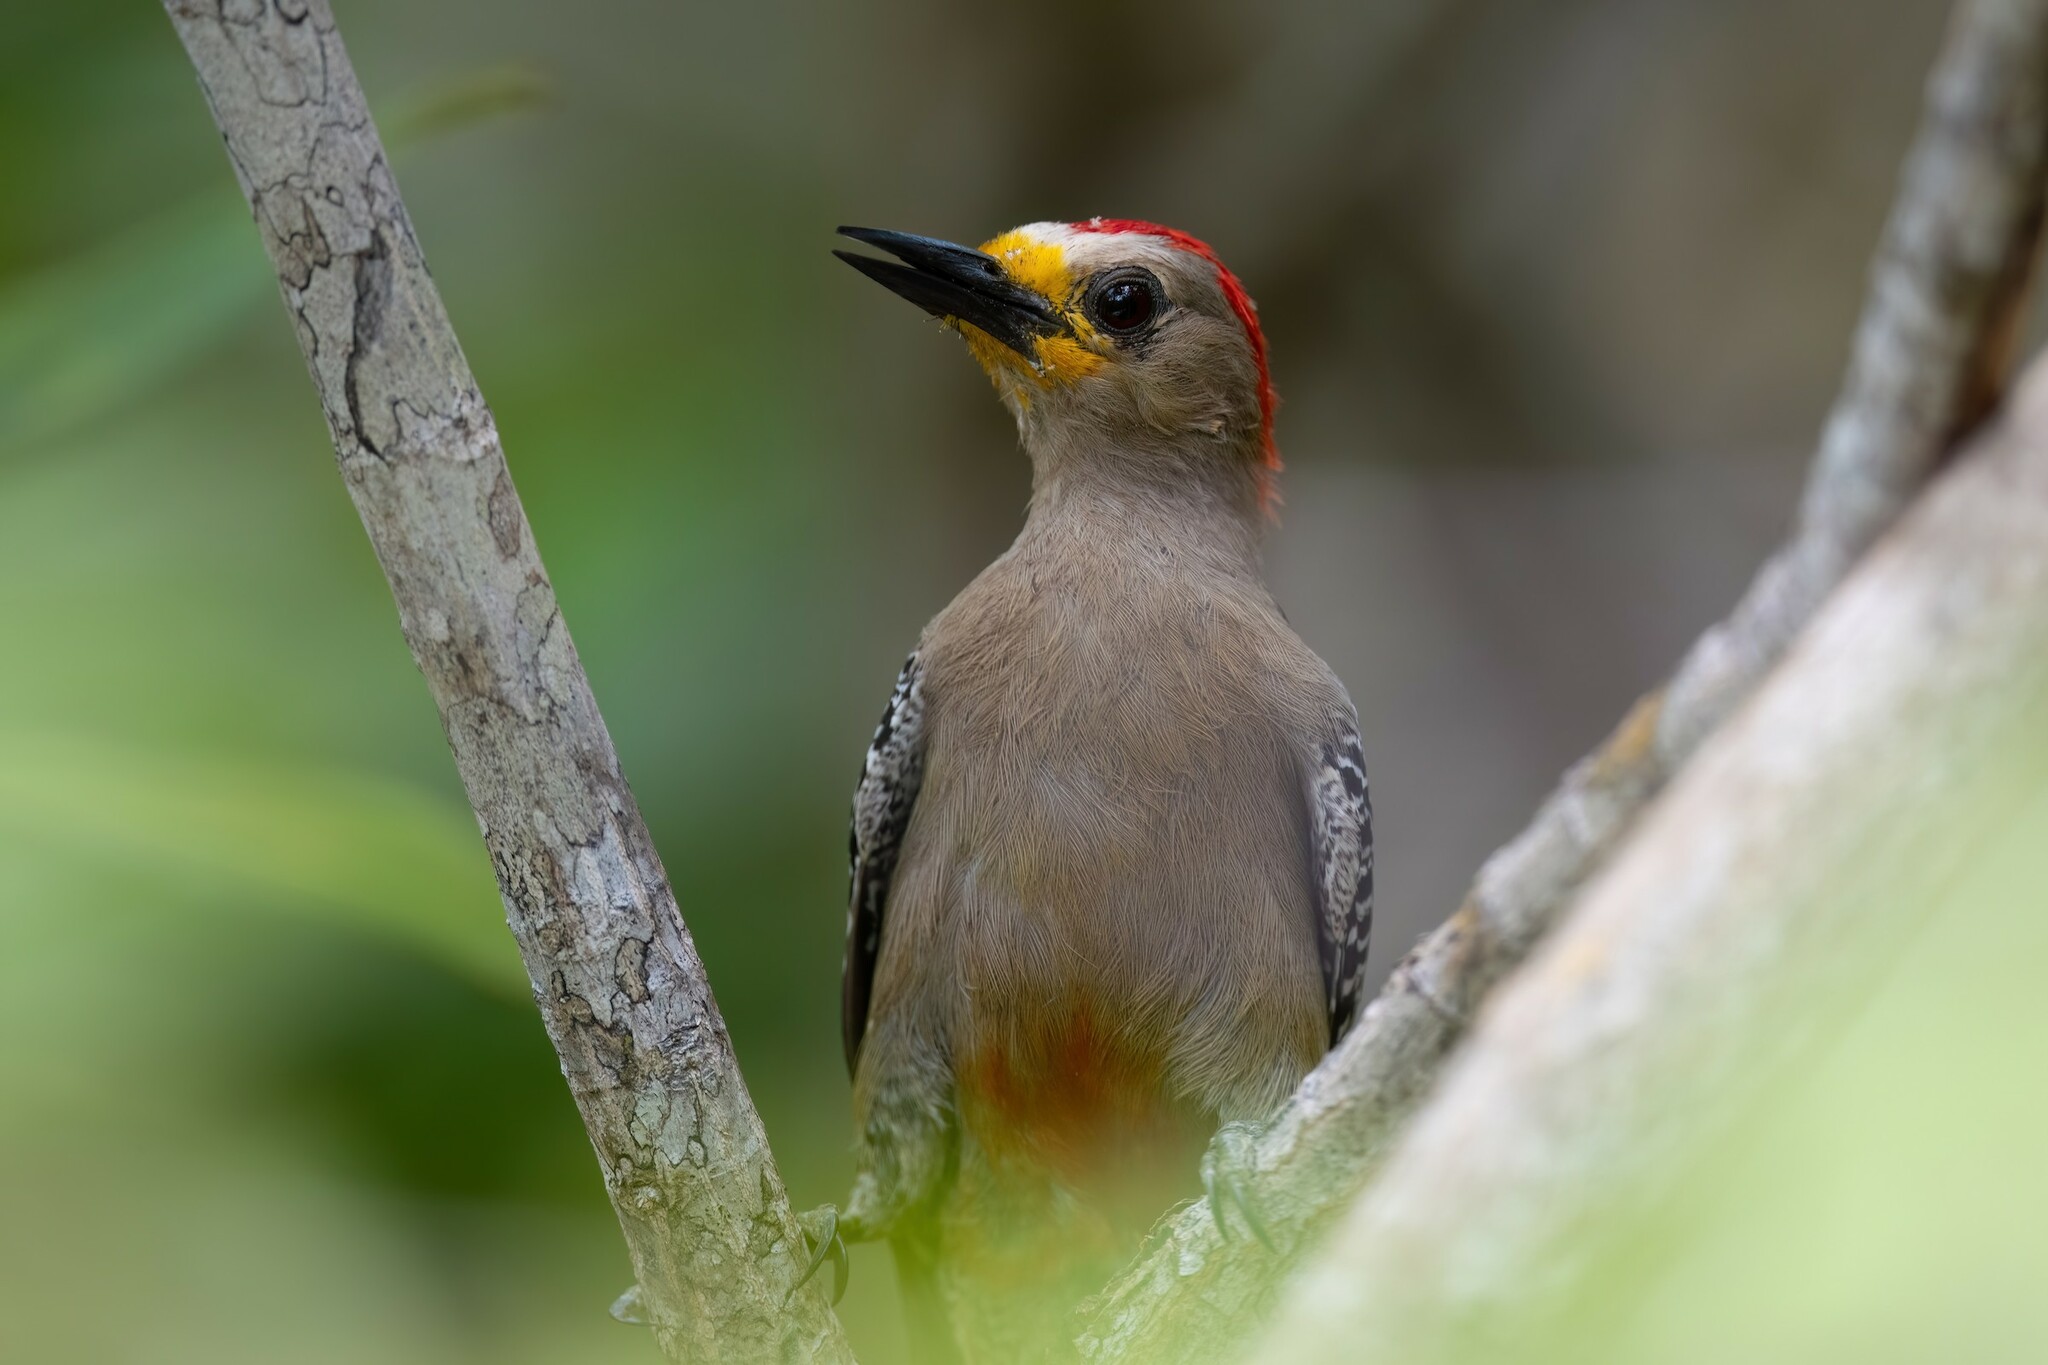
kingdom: Animalia
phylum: Chordata
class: Aves
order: Piciformes
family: Picidae
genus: Melanerpes
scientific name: Melanerpes pygmaeus
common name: Yucatan woodpecker
